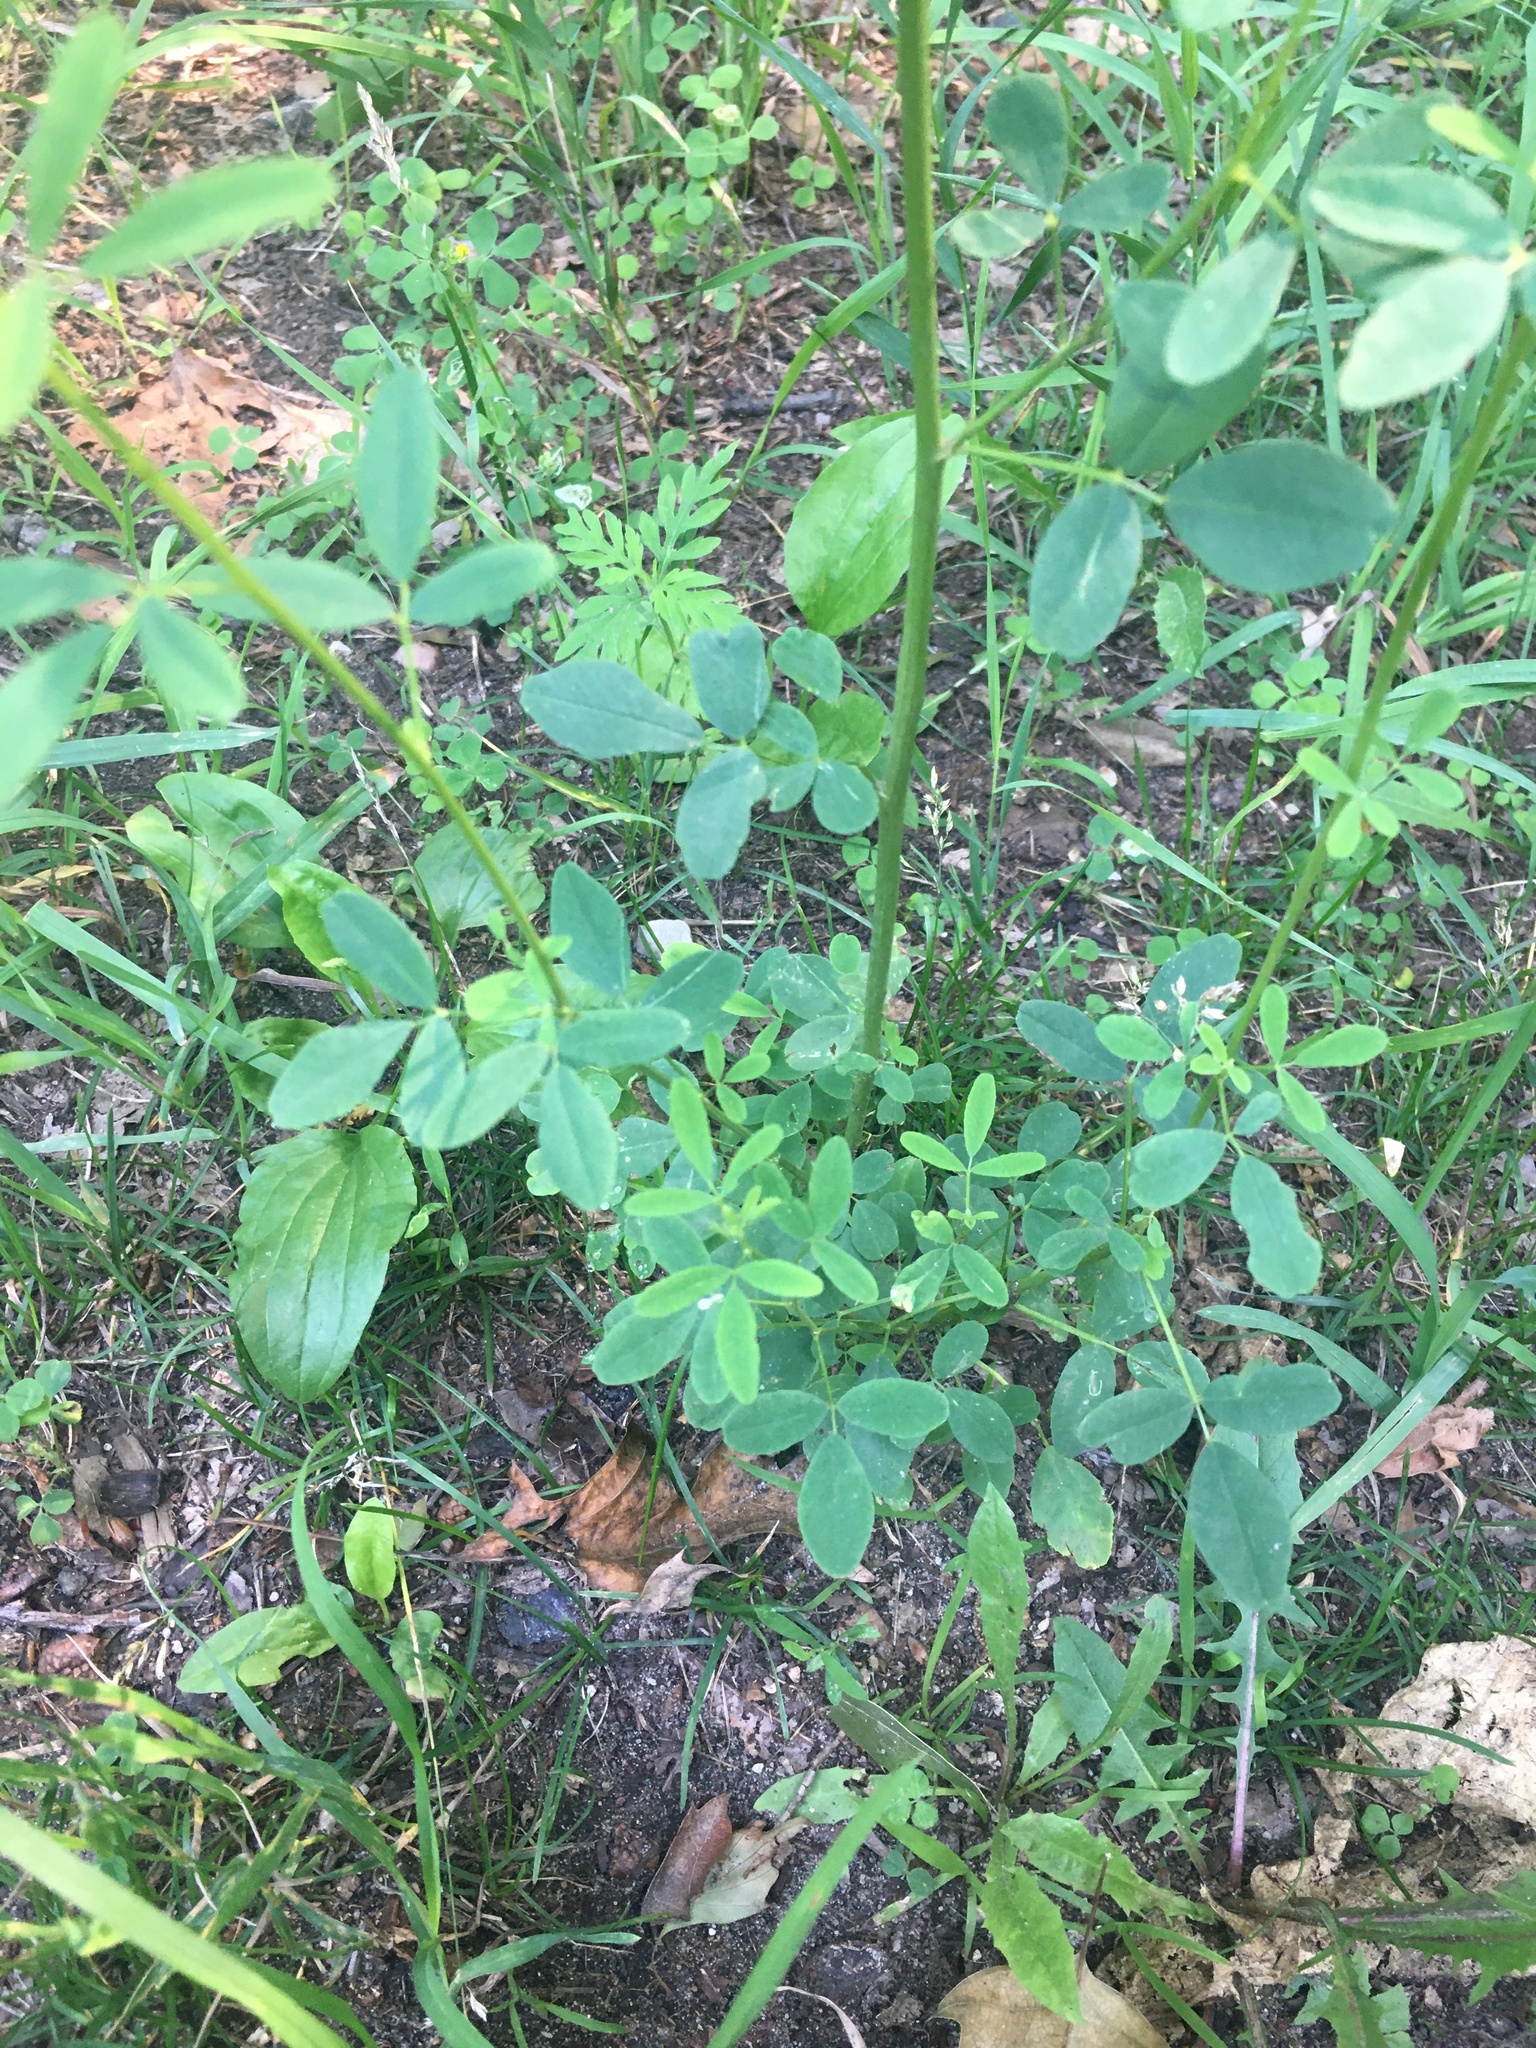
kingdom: Plantae
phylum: Tracheophyta
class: Magnoliopsida
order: Fabales
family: Fabaceae
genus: Melilotus
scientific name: Melilotus albus
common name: White melilot
